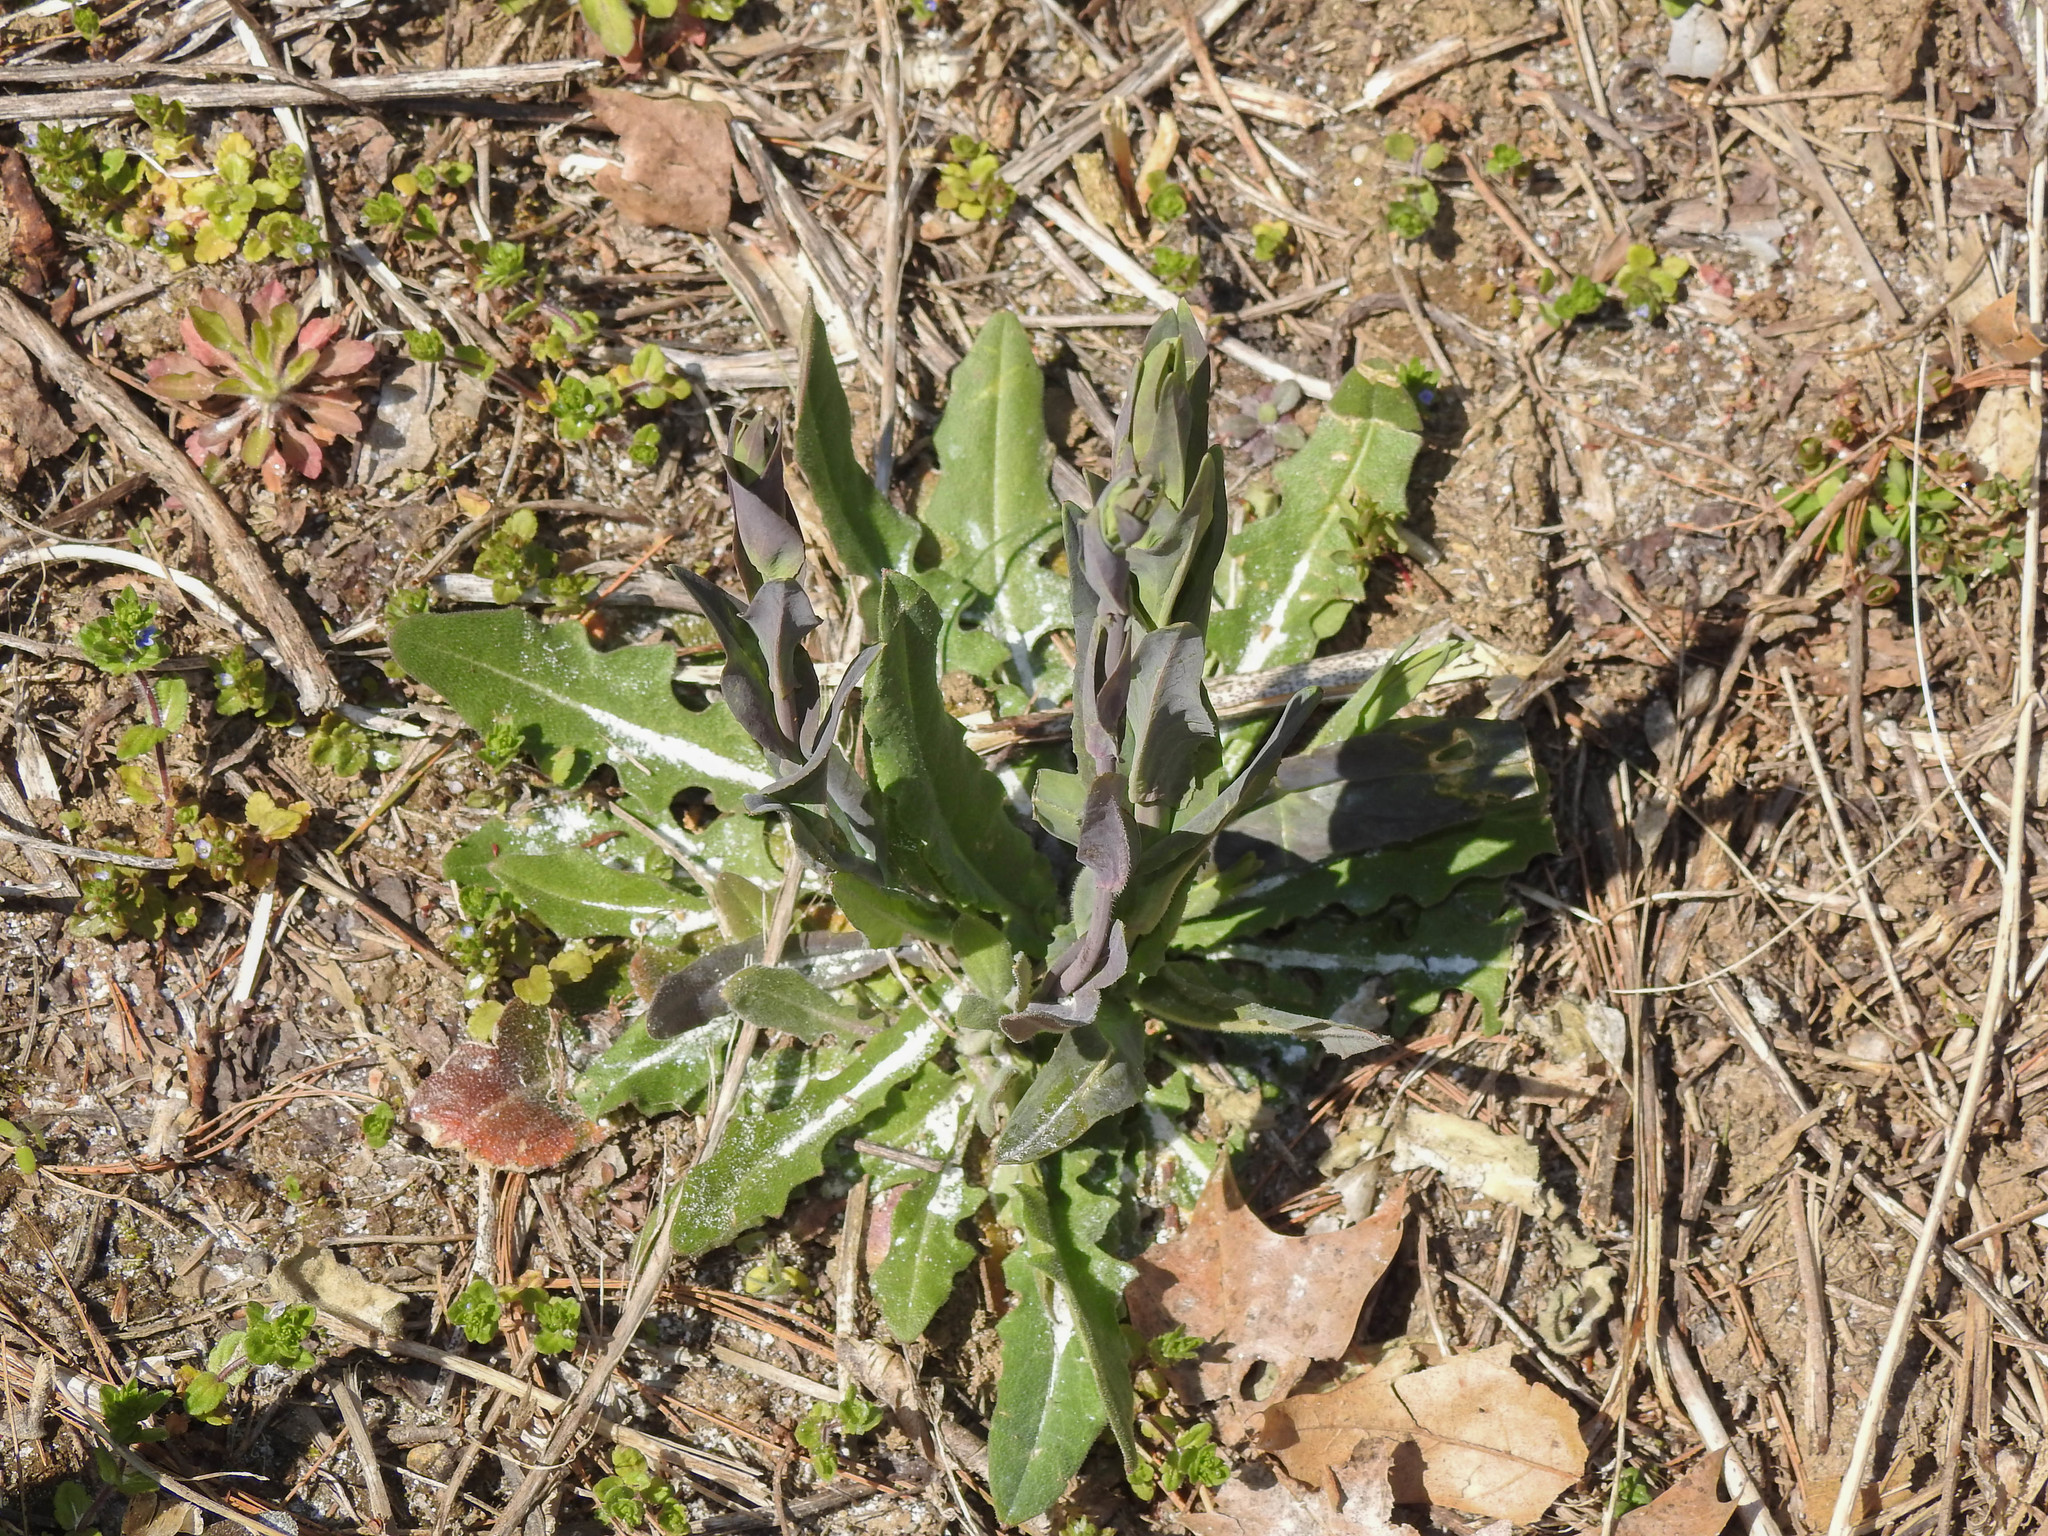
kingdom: Plantae
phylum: Tracheophyta
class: Magnoliopsida
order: Brassicales
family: Brassicaceae
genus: Turritis
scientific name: Turritis glabra
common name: Tower rockcress
